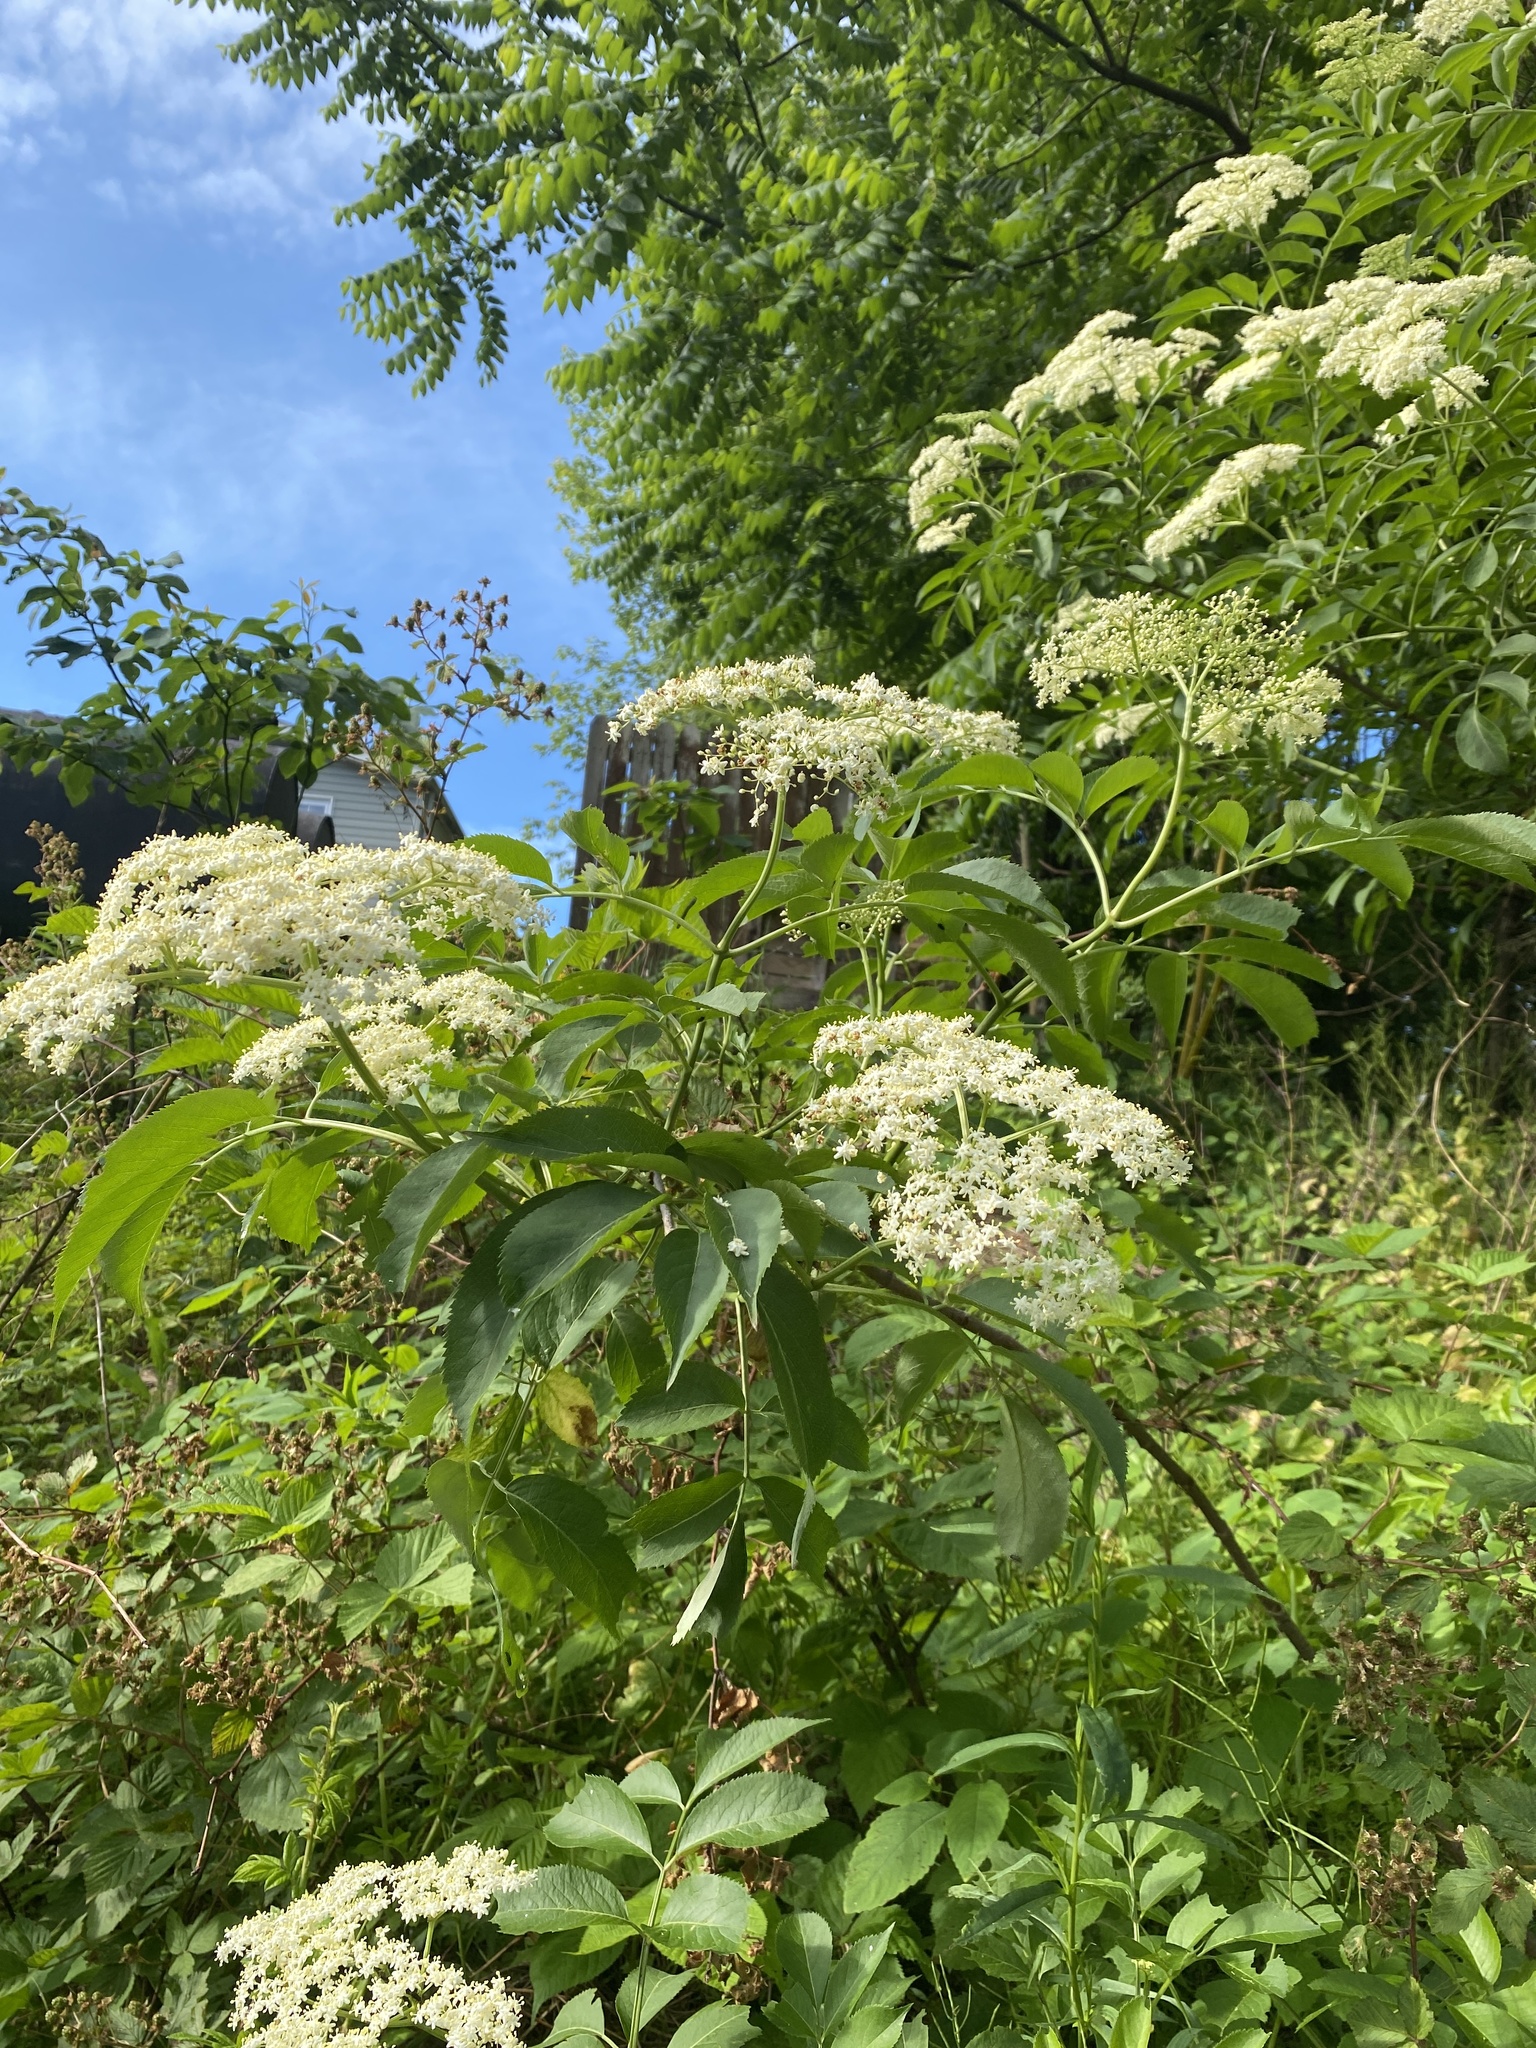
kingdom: Plantae
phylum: Tracheophyta
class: Magnoliopsida
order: Dipsacales
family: Viburnaceae
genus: Sambucus
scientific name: Sambucus canadensis
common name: American elder
